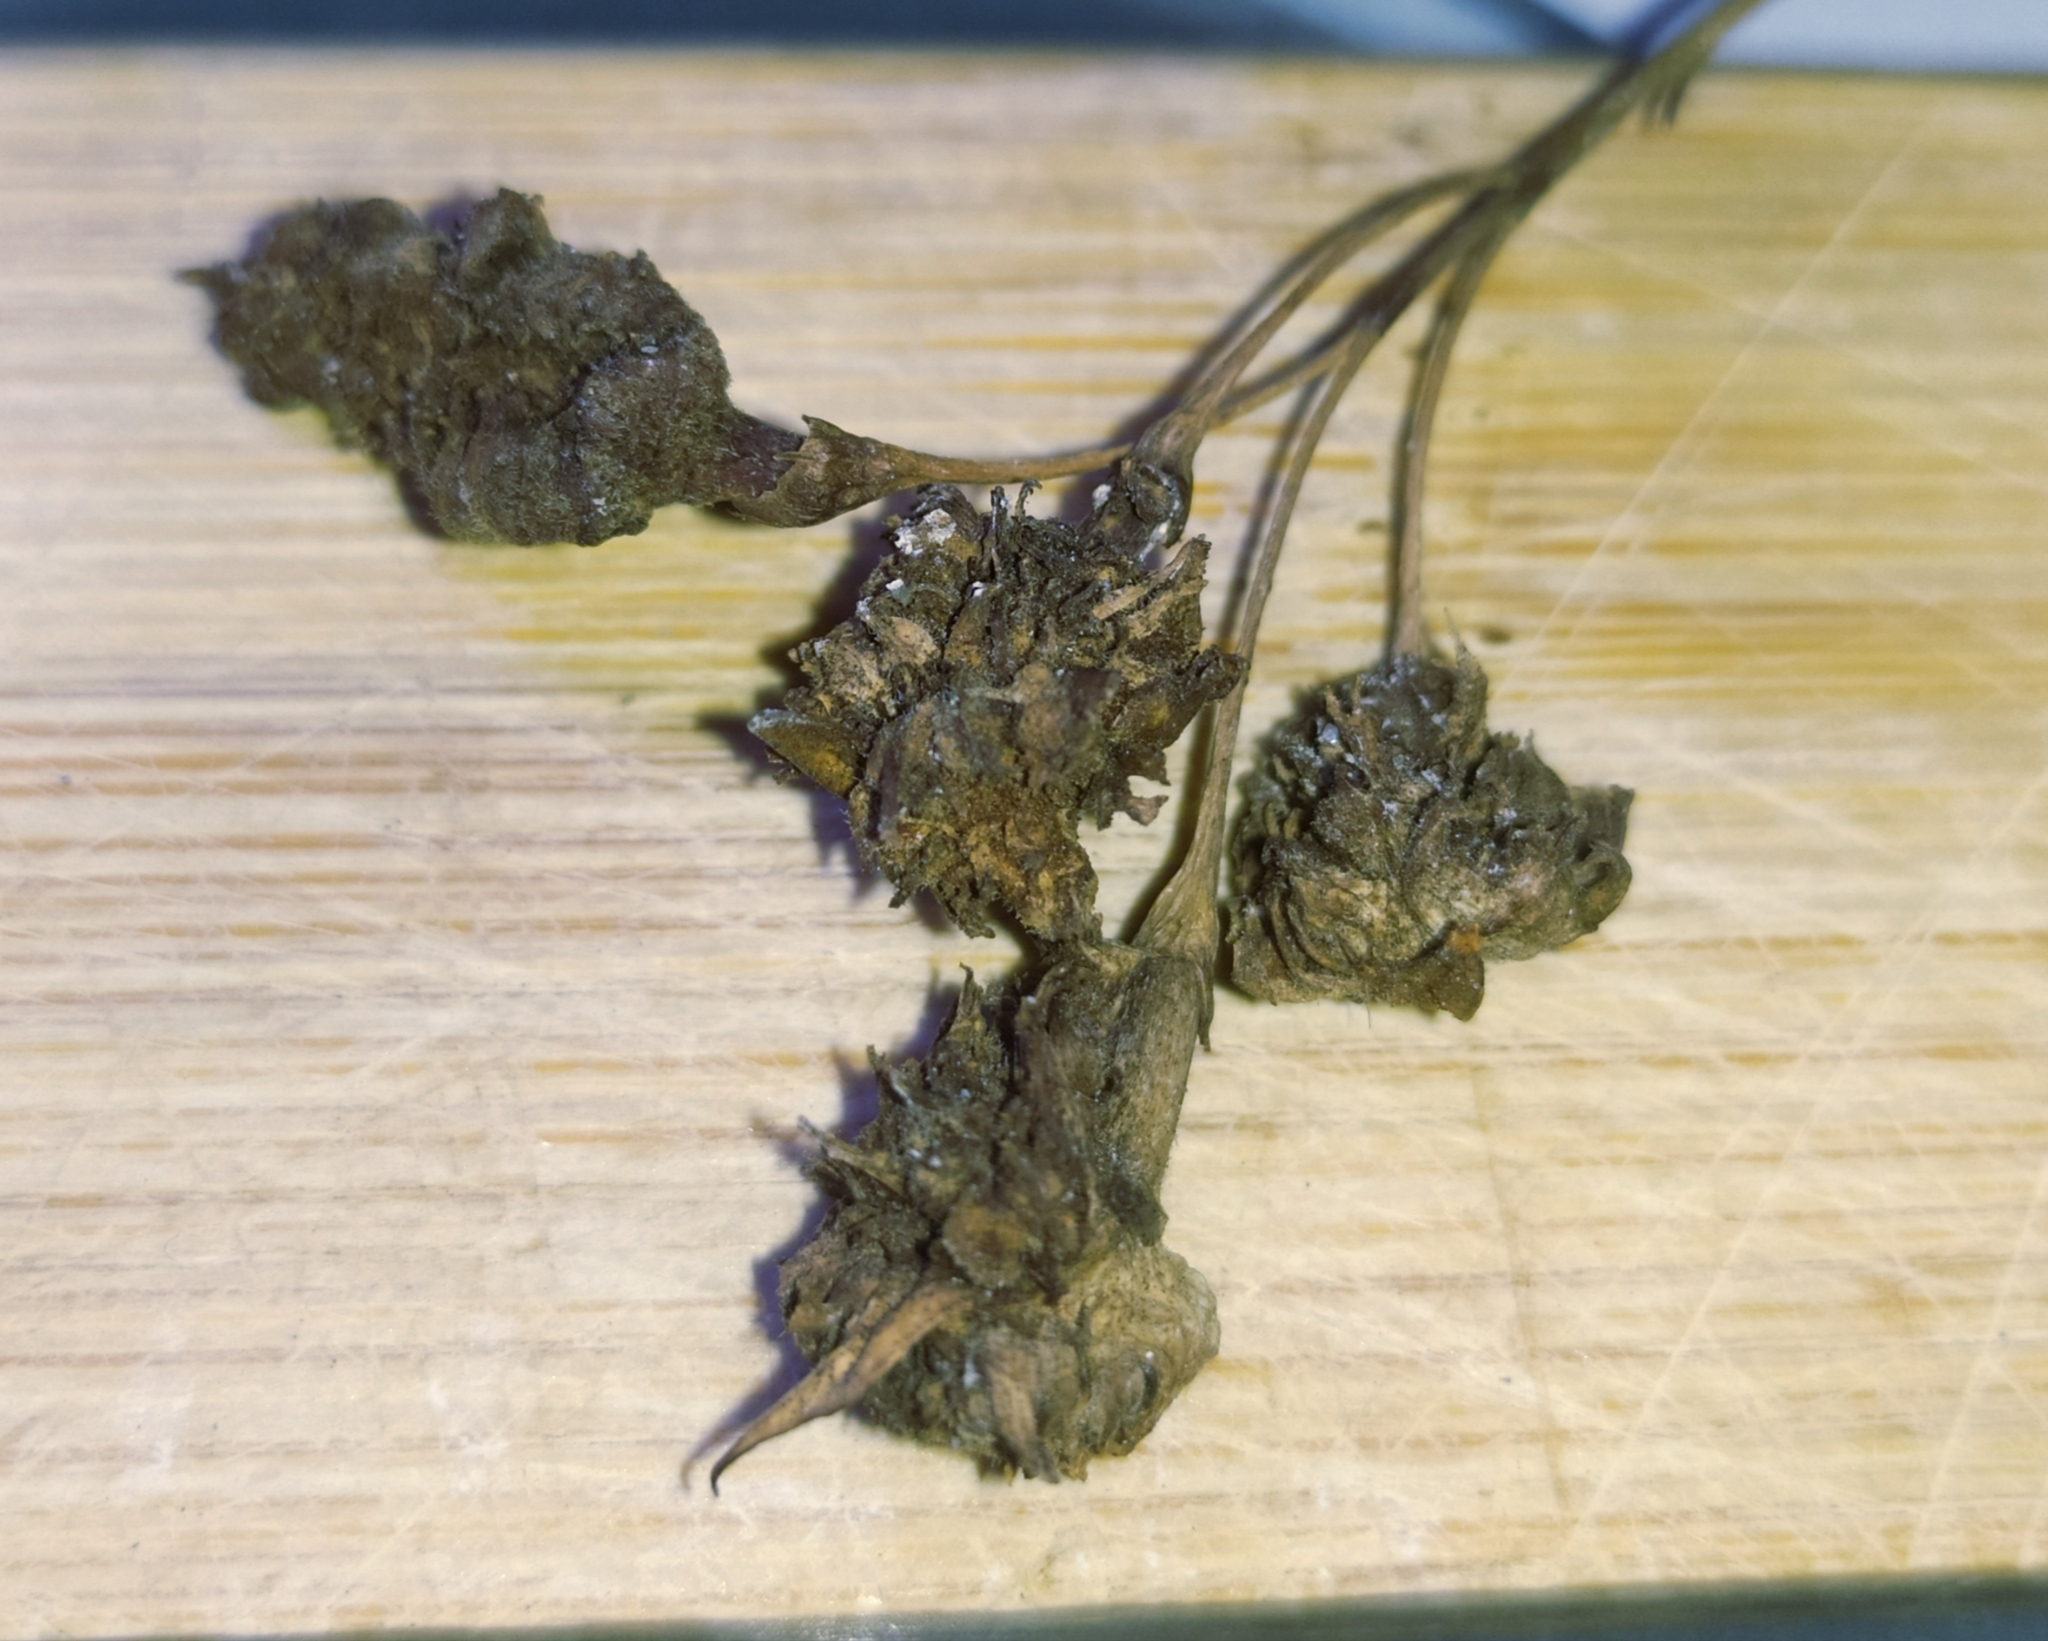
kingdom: Animalia
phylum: Arthropoda
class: Insecta
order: Psocodea
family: Ectopsocidae
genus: Ectopsocus
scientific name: Ectopsocus petersi
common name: Medium-sized bark louse
